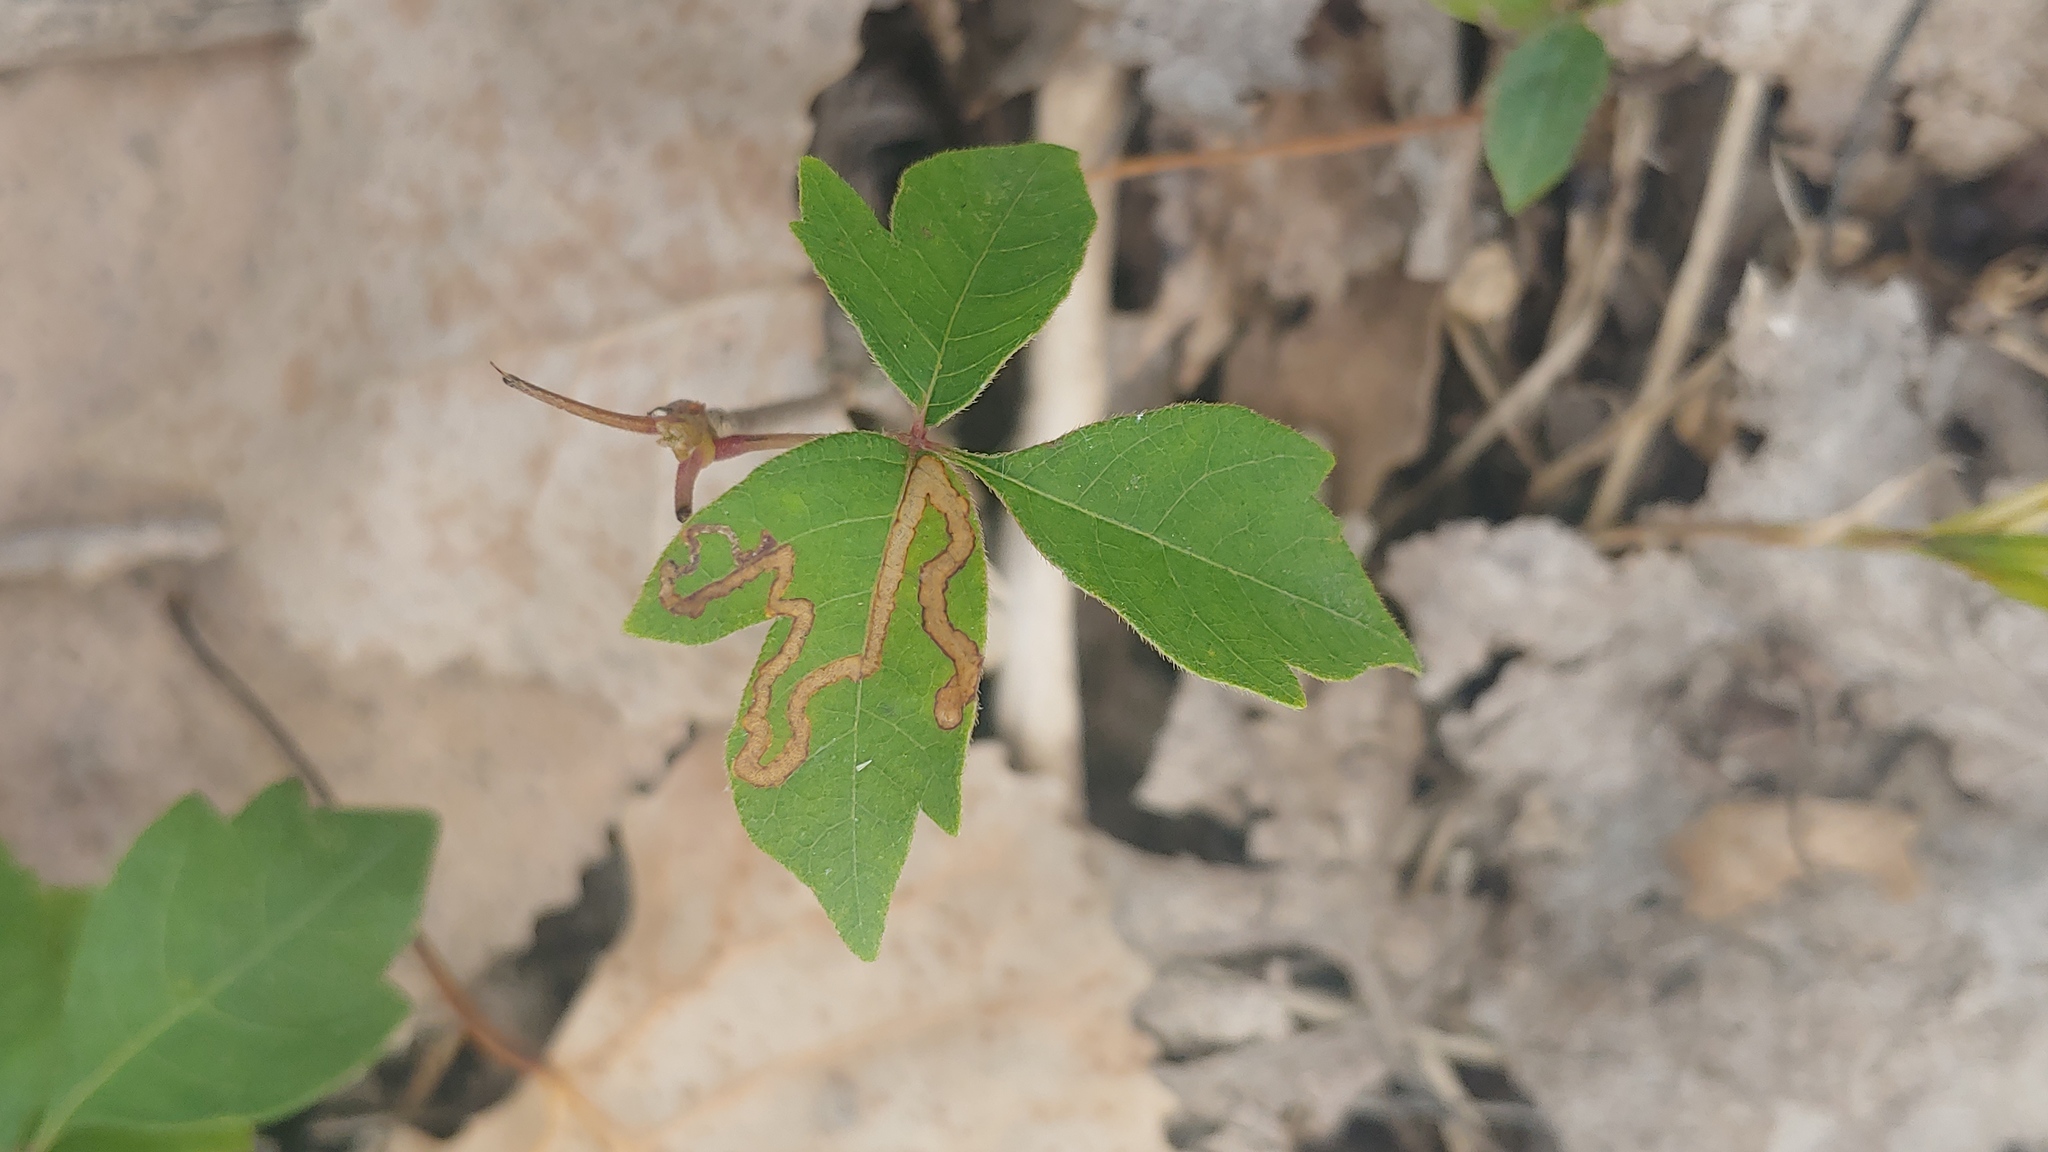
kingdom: Animalia
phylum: Arthropoda
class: Insecta
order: Lepidoptera
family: Nepticulidae
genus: Stigmella
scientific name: Stigmella rhoifoliella
